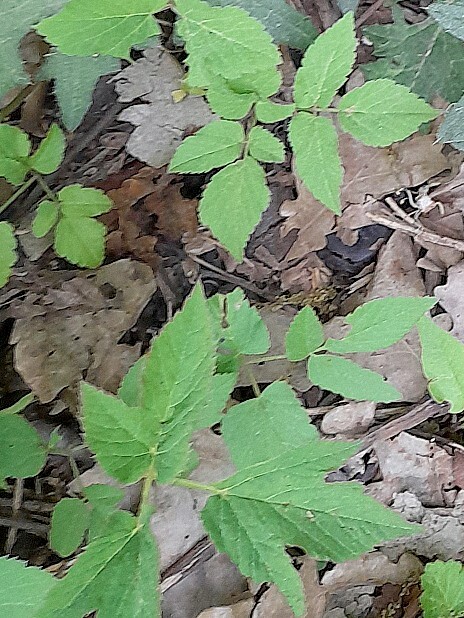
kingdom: Plantae
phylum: Tracheophyta
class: Magnoliopsida
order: Apiales
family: Apiaceae
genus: Aegopodium
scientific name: Aegopodium podagraria
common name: Ground-elder
